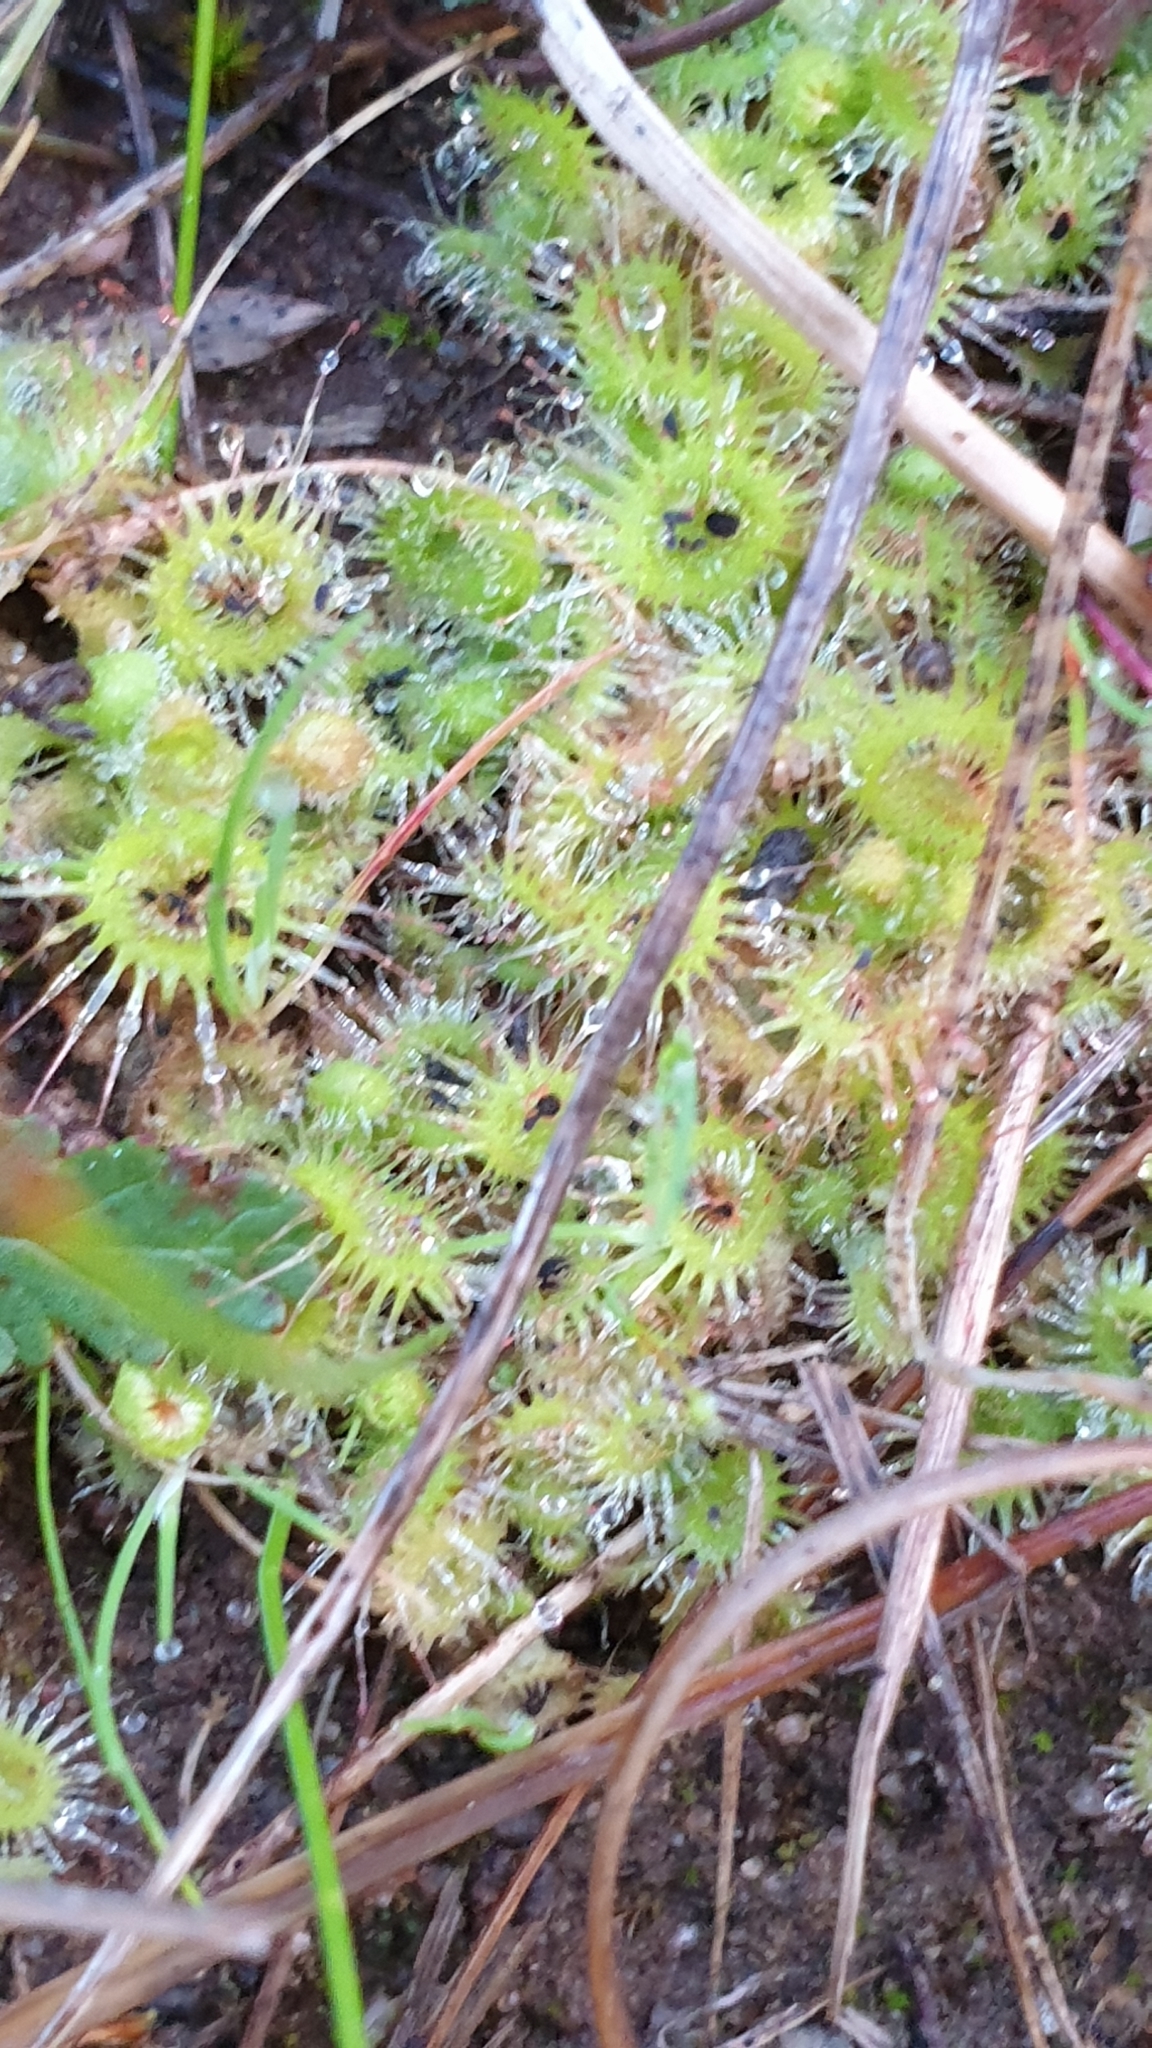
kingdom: Plantae
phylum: Tracheophyta
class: Magnoliopsida
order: Caryophyllales
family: Droseraceae
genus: Drosera
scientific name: Drosera glanduligera
